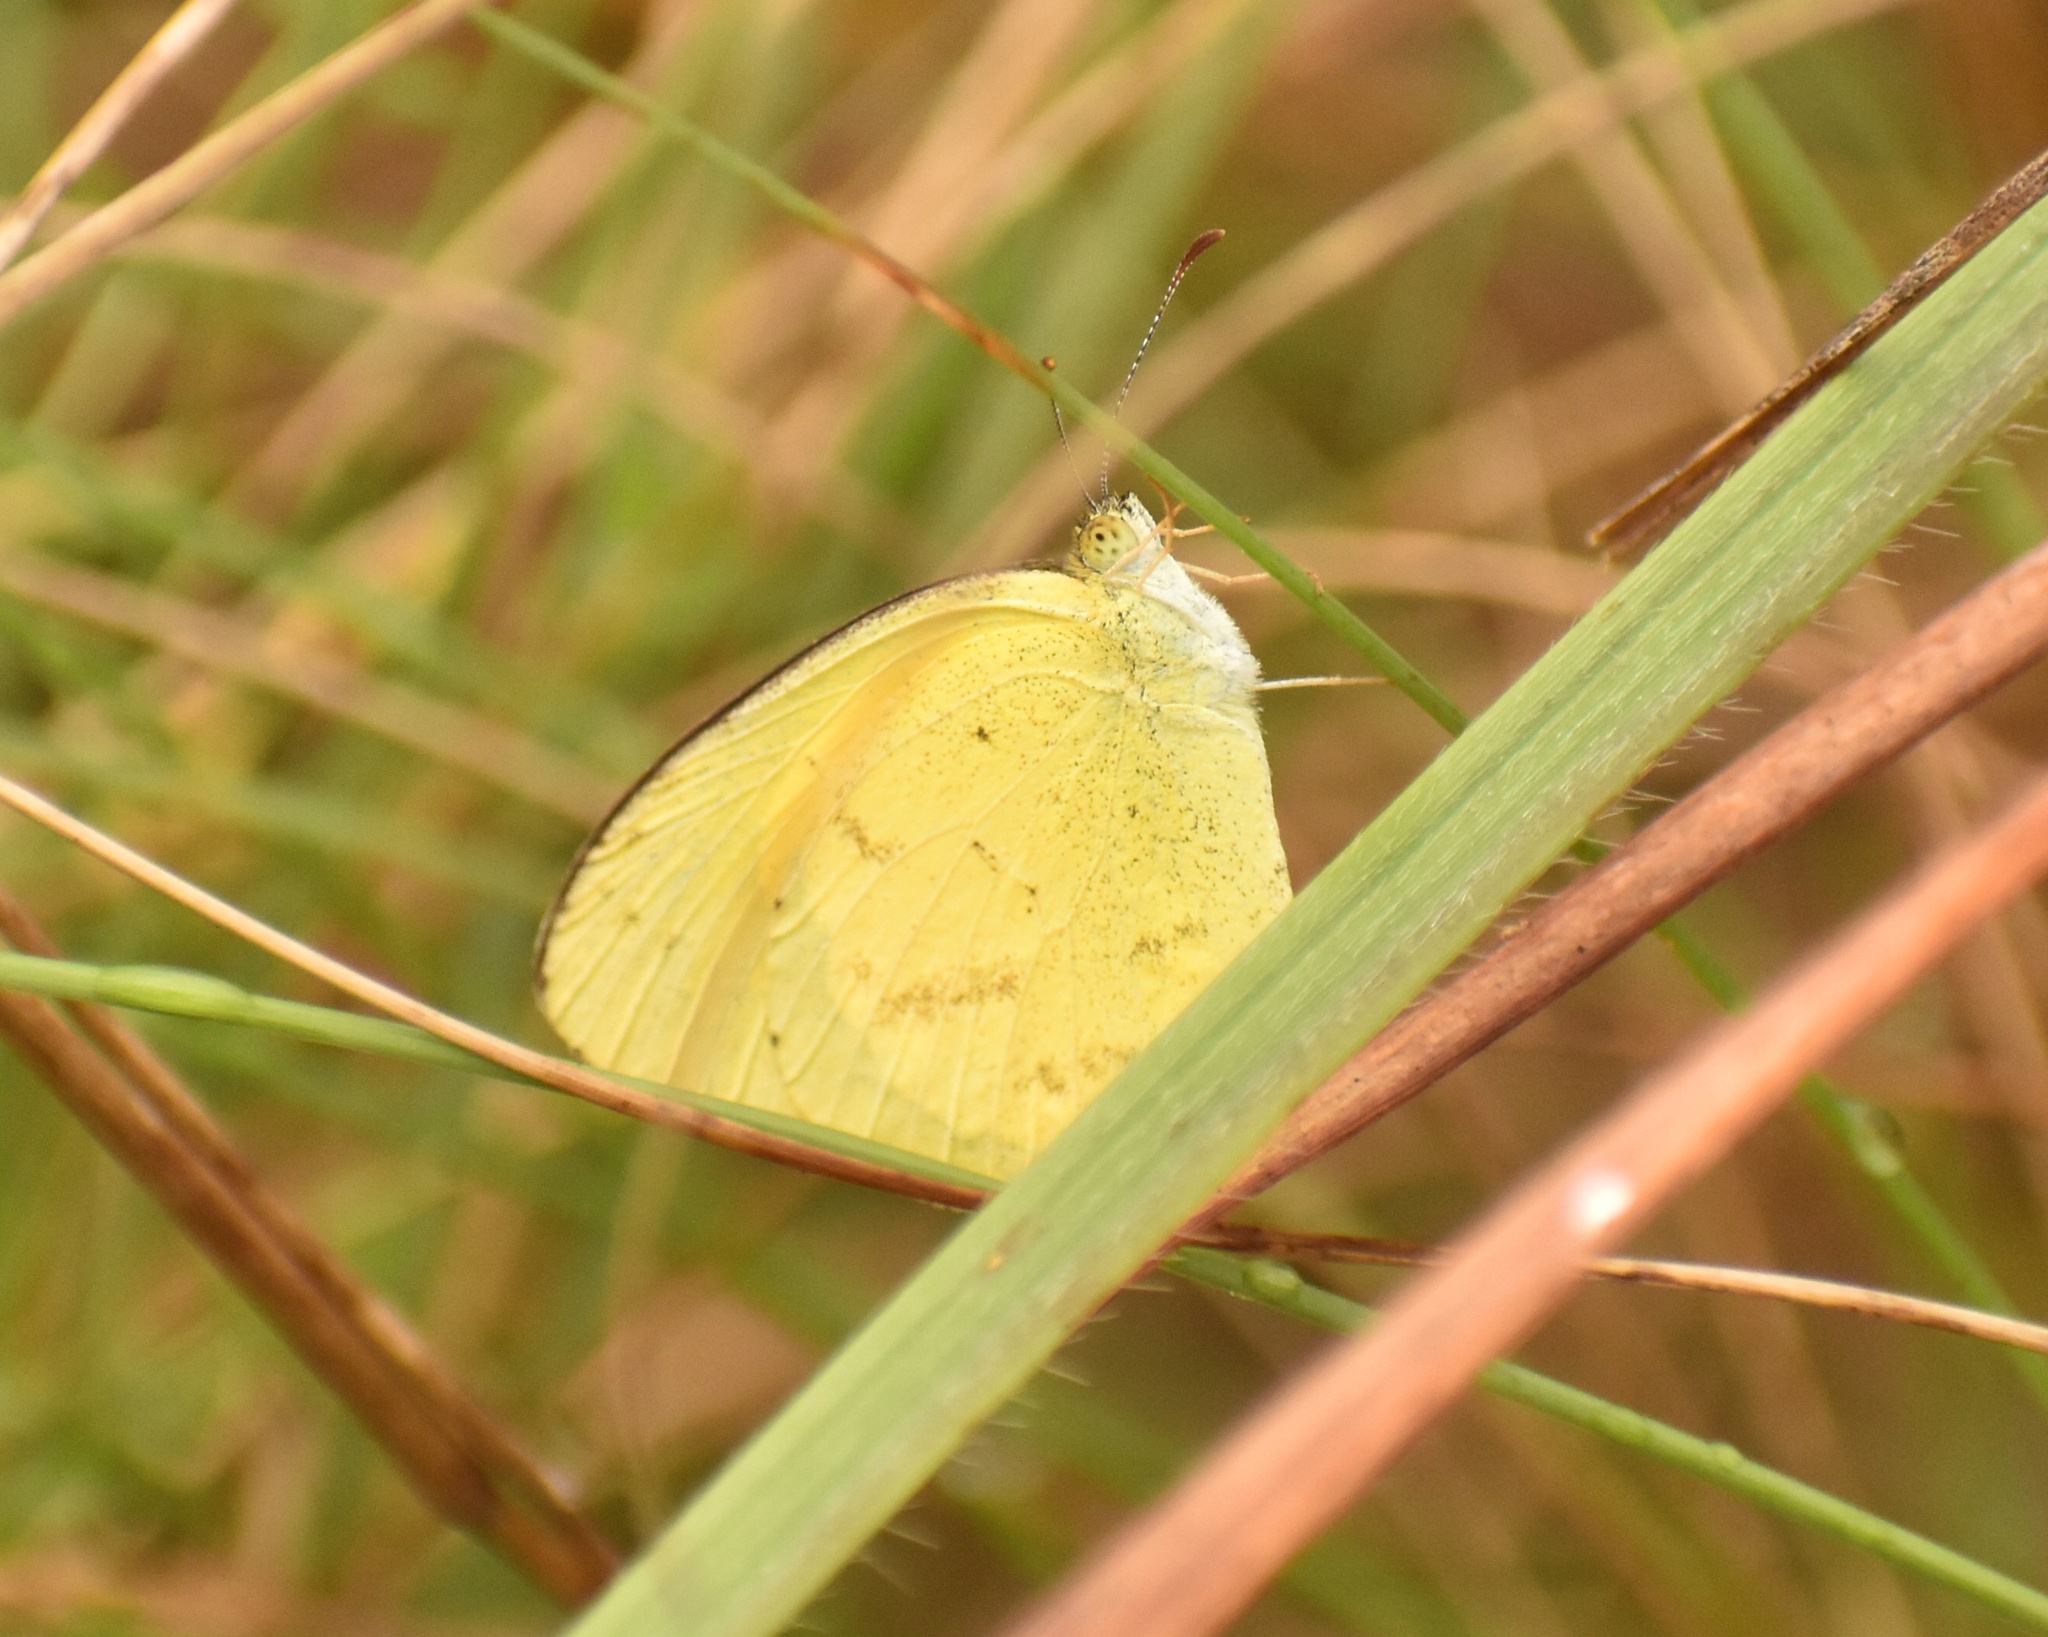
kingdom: Animalia
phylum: Arthropoda
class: Insecta
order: Lepidoptera
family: Pieridae
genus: Eurema
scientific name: Eurema brigitta
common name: Small grass yellow
